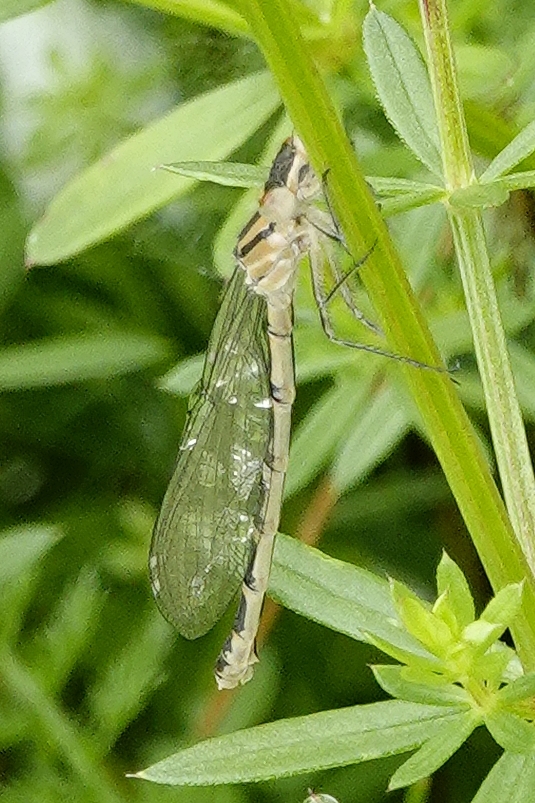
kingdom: Animalia
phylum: Arthropoda
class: Insecta
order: Odonata
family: Coenagrionidae
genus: Enallagma
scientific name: Enallagma cyathigerum
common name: Common blue damselfly
